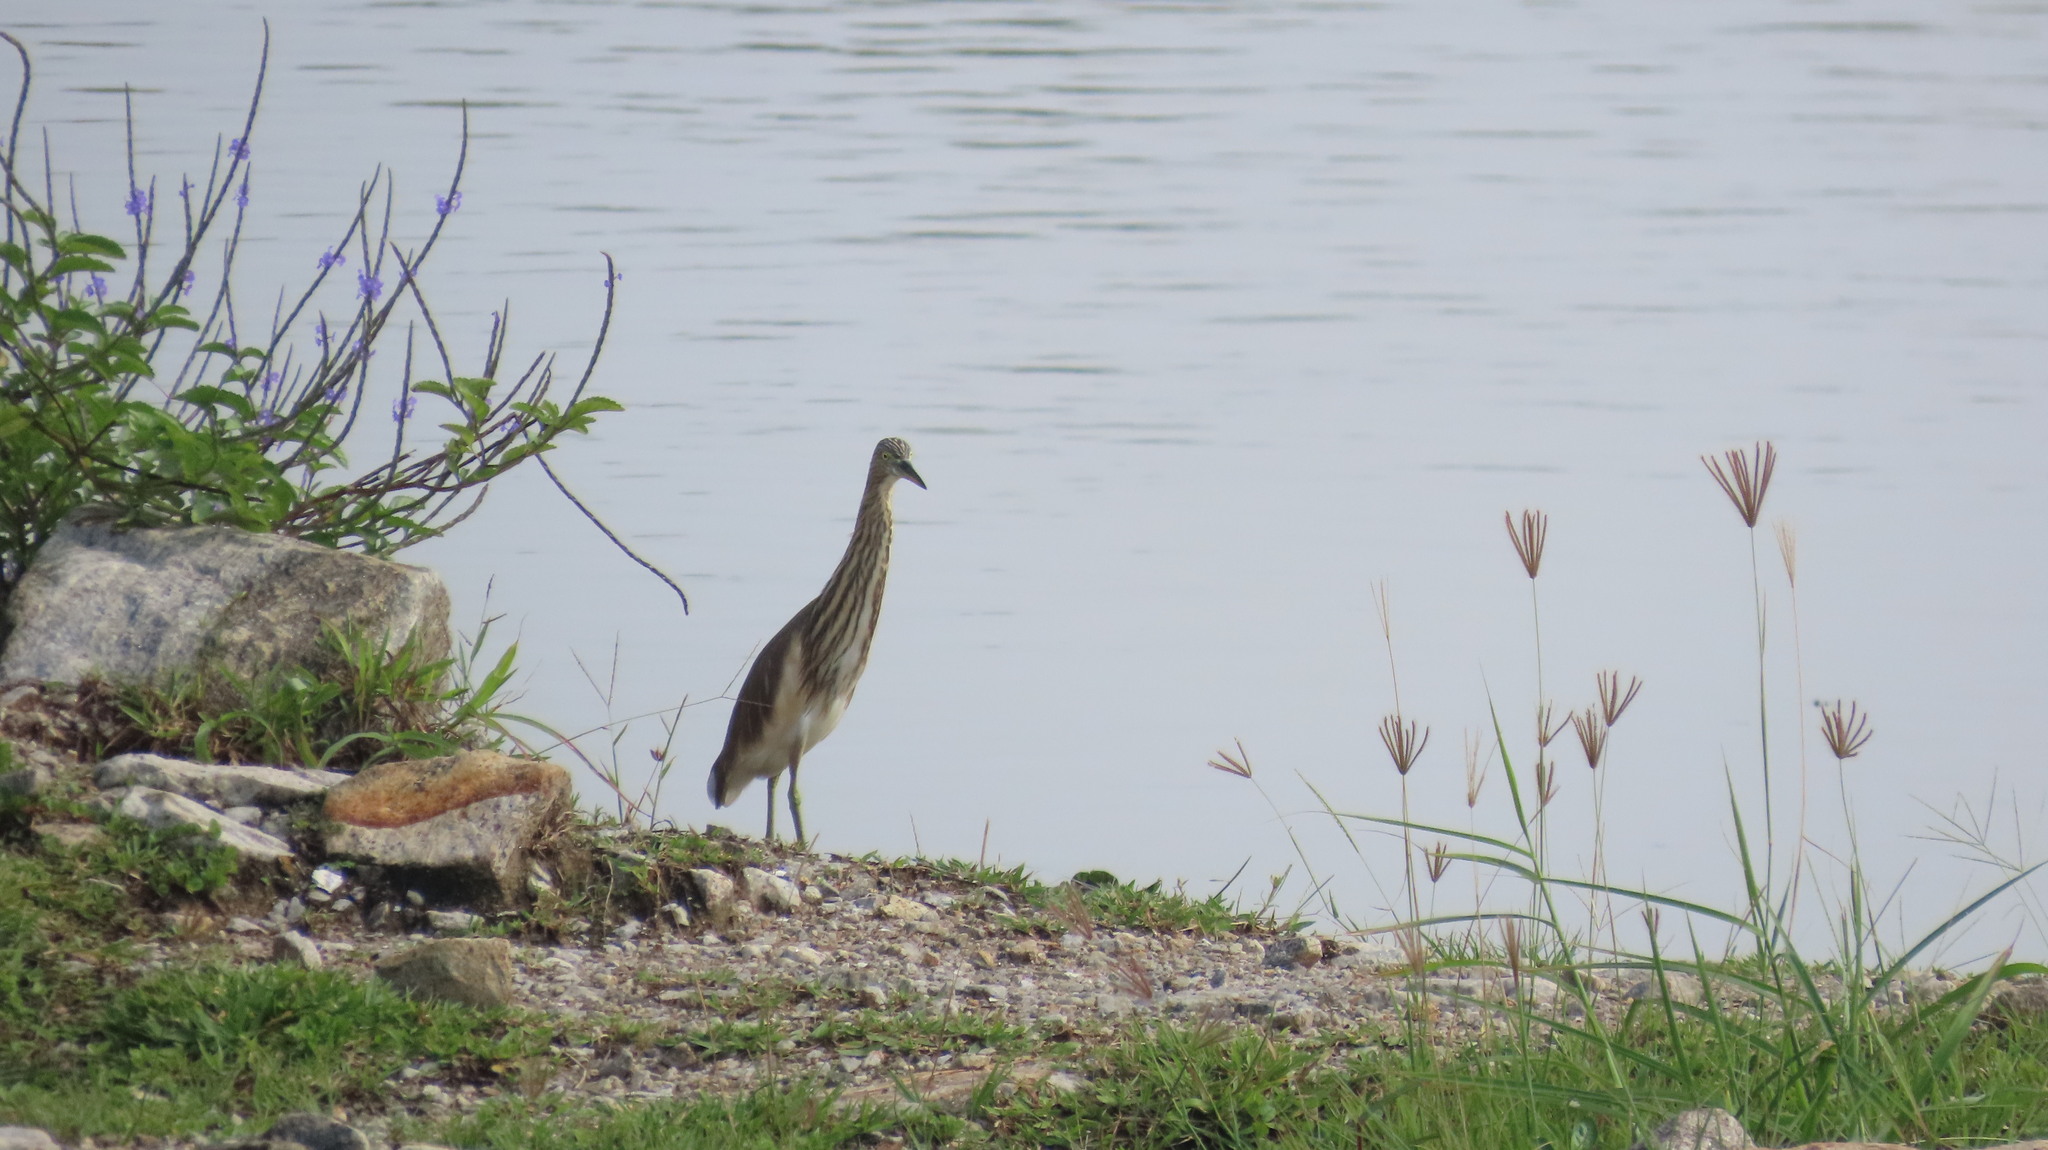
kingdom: Animalia
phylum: Chordata
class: Aves
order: Pelecaniformes
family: Ardeidae
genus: Ardeola
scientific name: Ardeola grayii
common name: Indian pond heron
